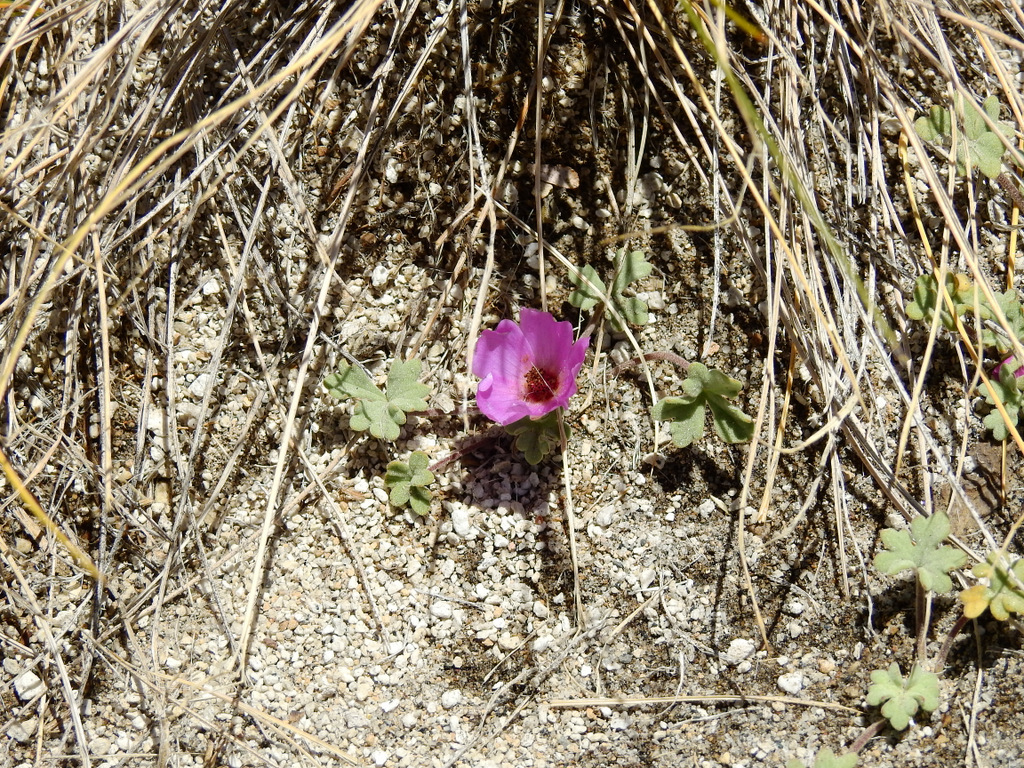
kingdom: Plantae
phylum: Tracheophyta
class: Magnoliopsida
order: Malvales
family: Malvaceae
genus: Tarasa
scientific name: Tarasa humilis
